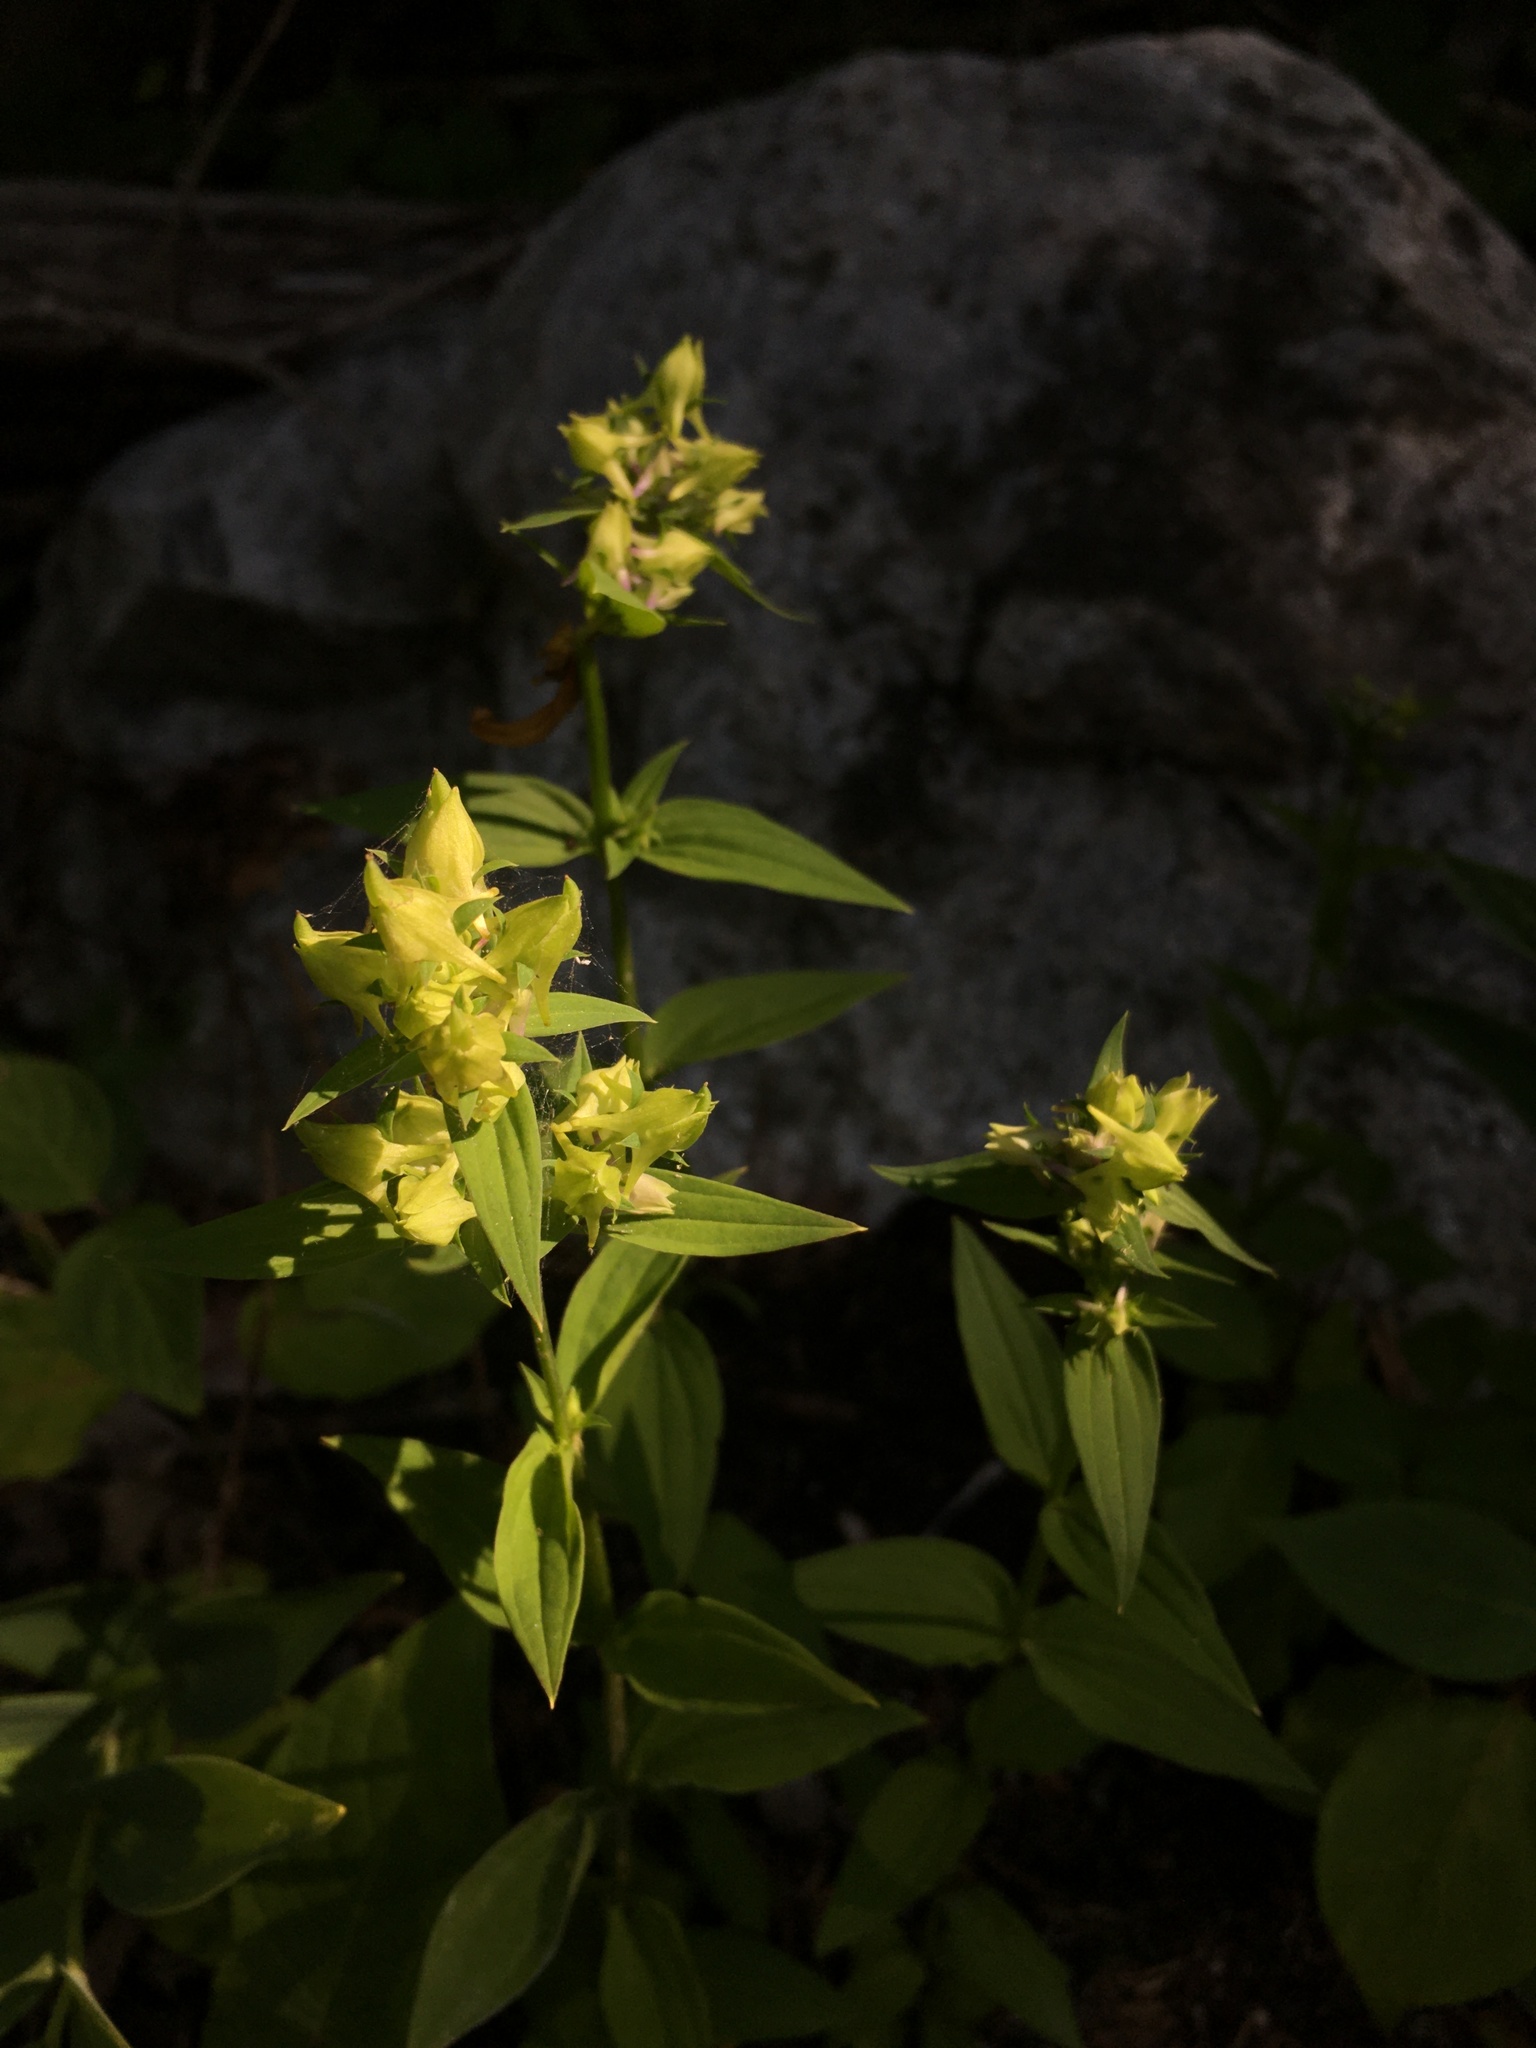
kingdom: Plantae
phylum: Tracheophyta
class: Magnoliopsida
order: Gentianales
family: Gentianaceae
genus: Halenia
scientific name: Halenia deflexa
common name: American spurred gentian
